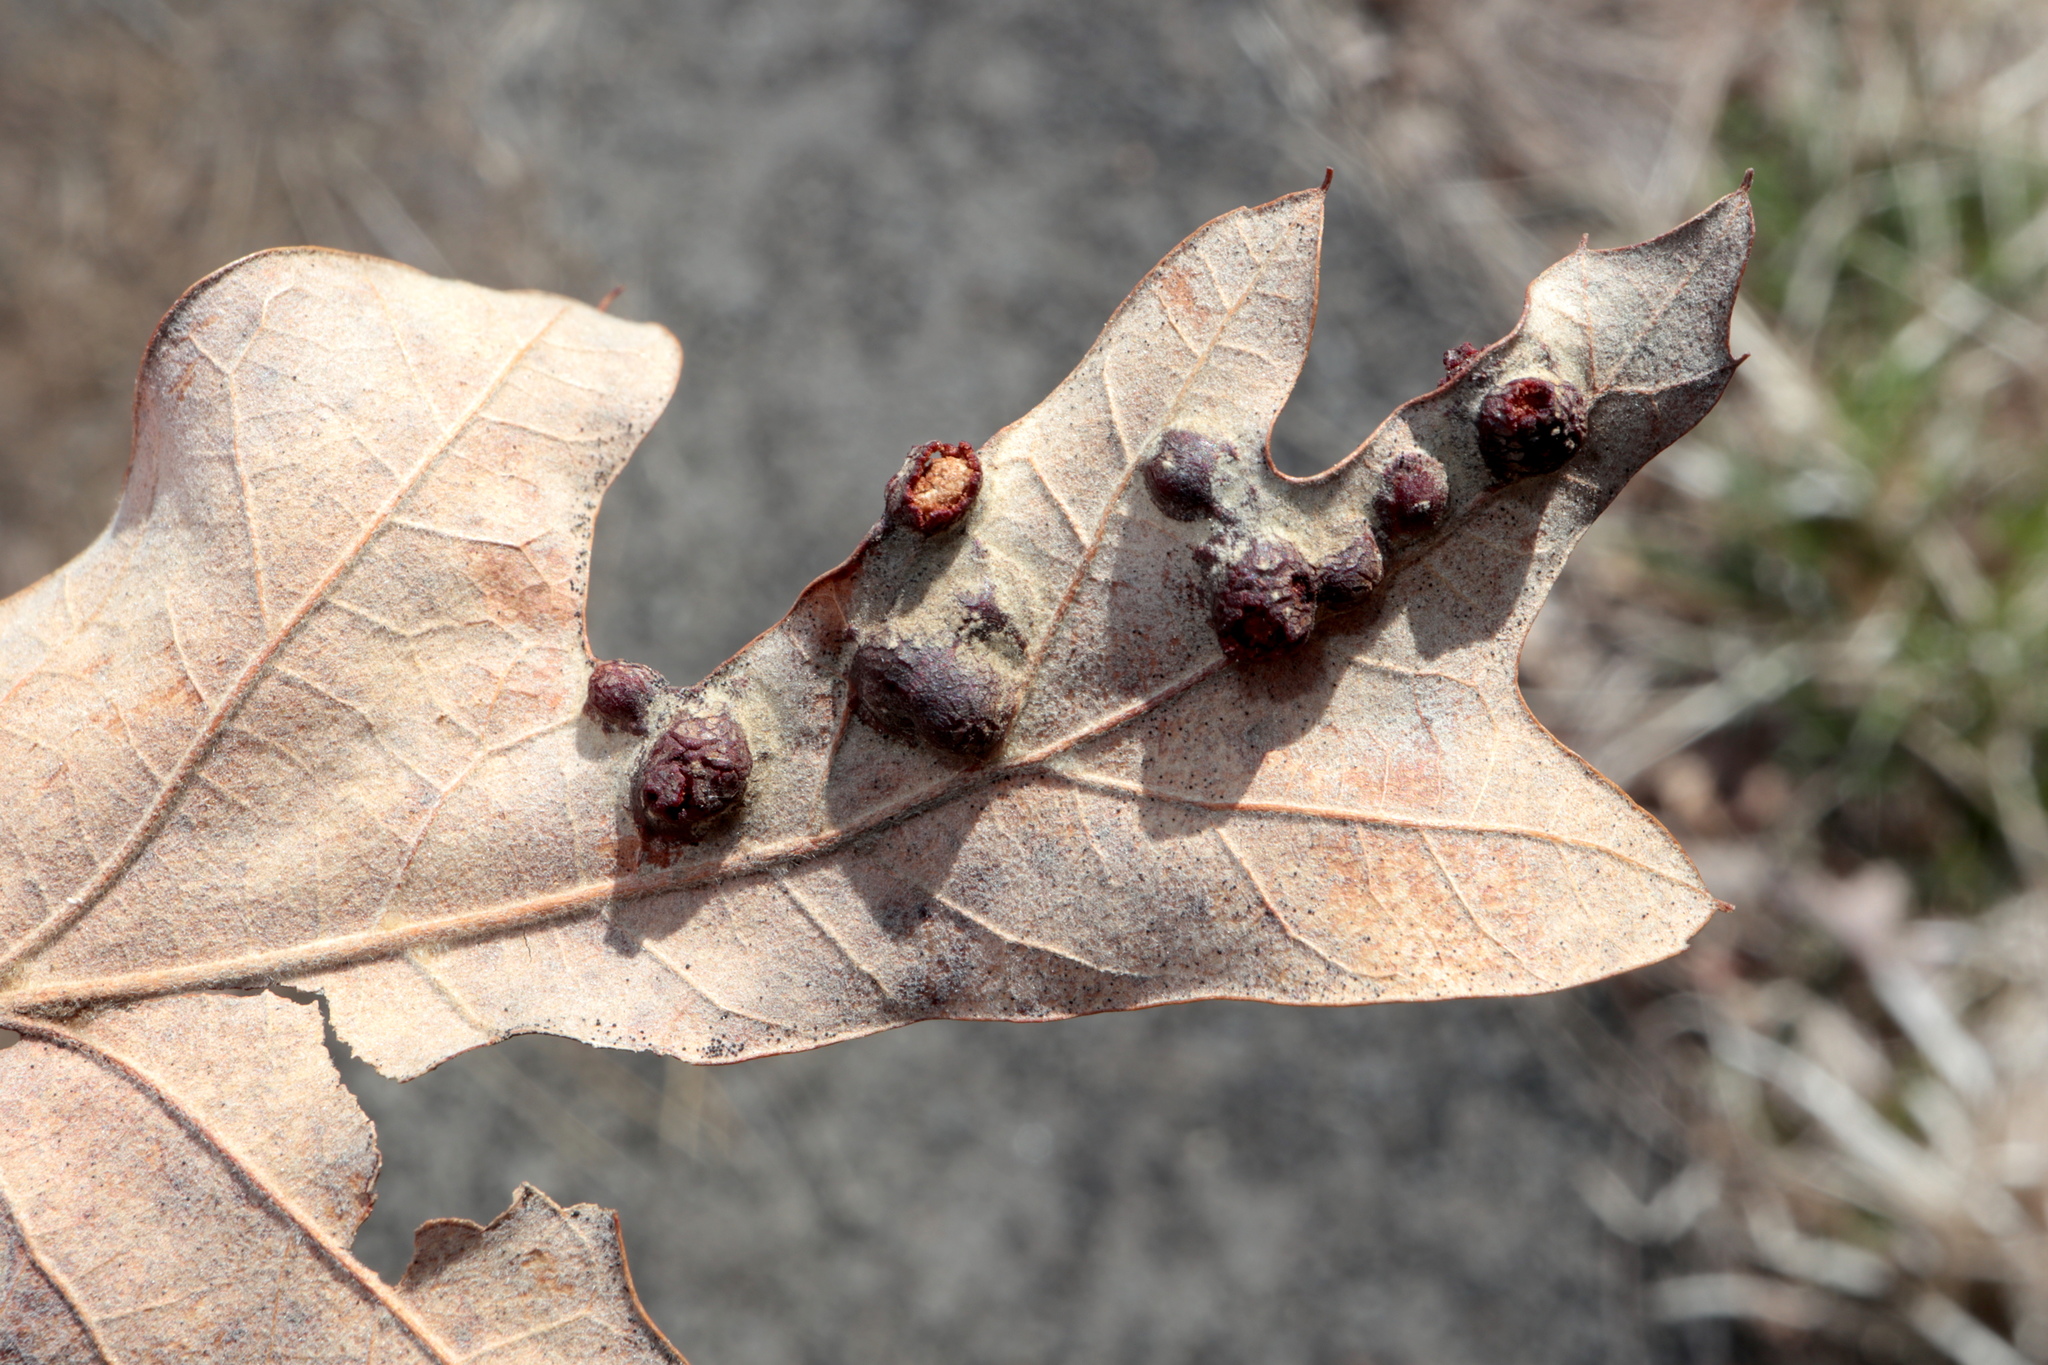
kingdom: Animalia
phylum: Arthropoda
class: Insecta
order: Diptera
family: Cecidomyiidae
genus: Polystepha
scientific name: Polystepha symmetrica
